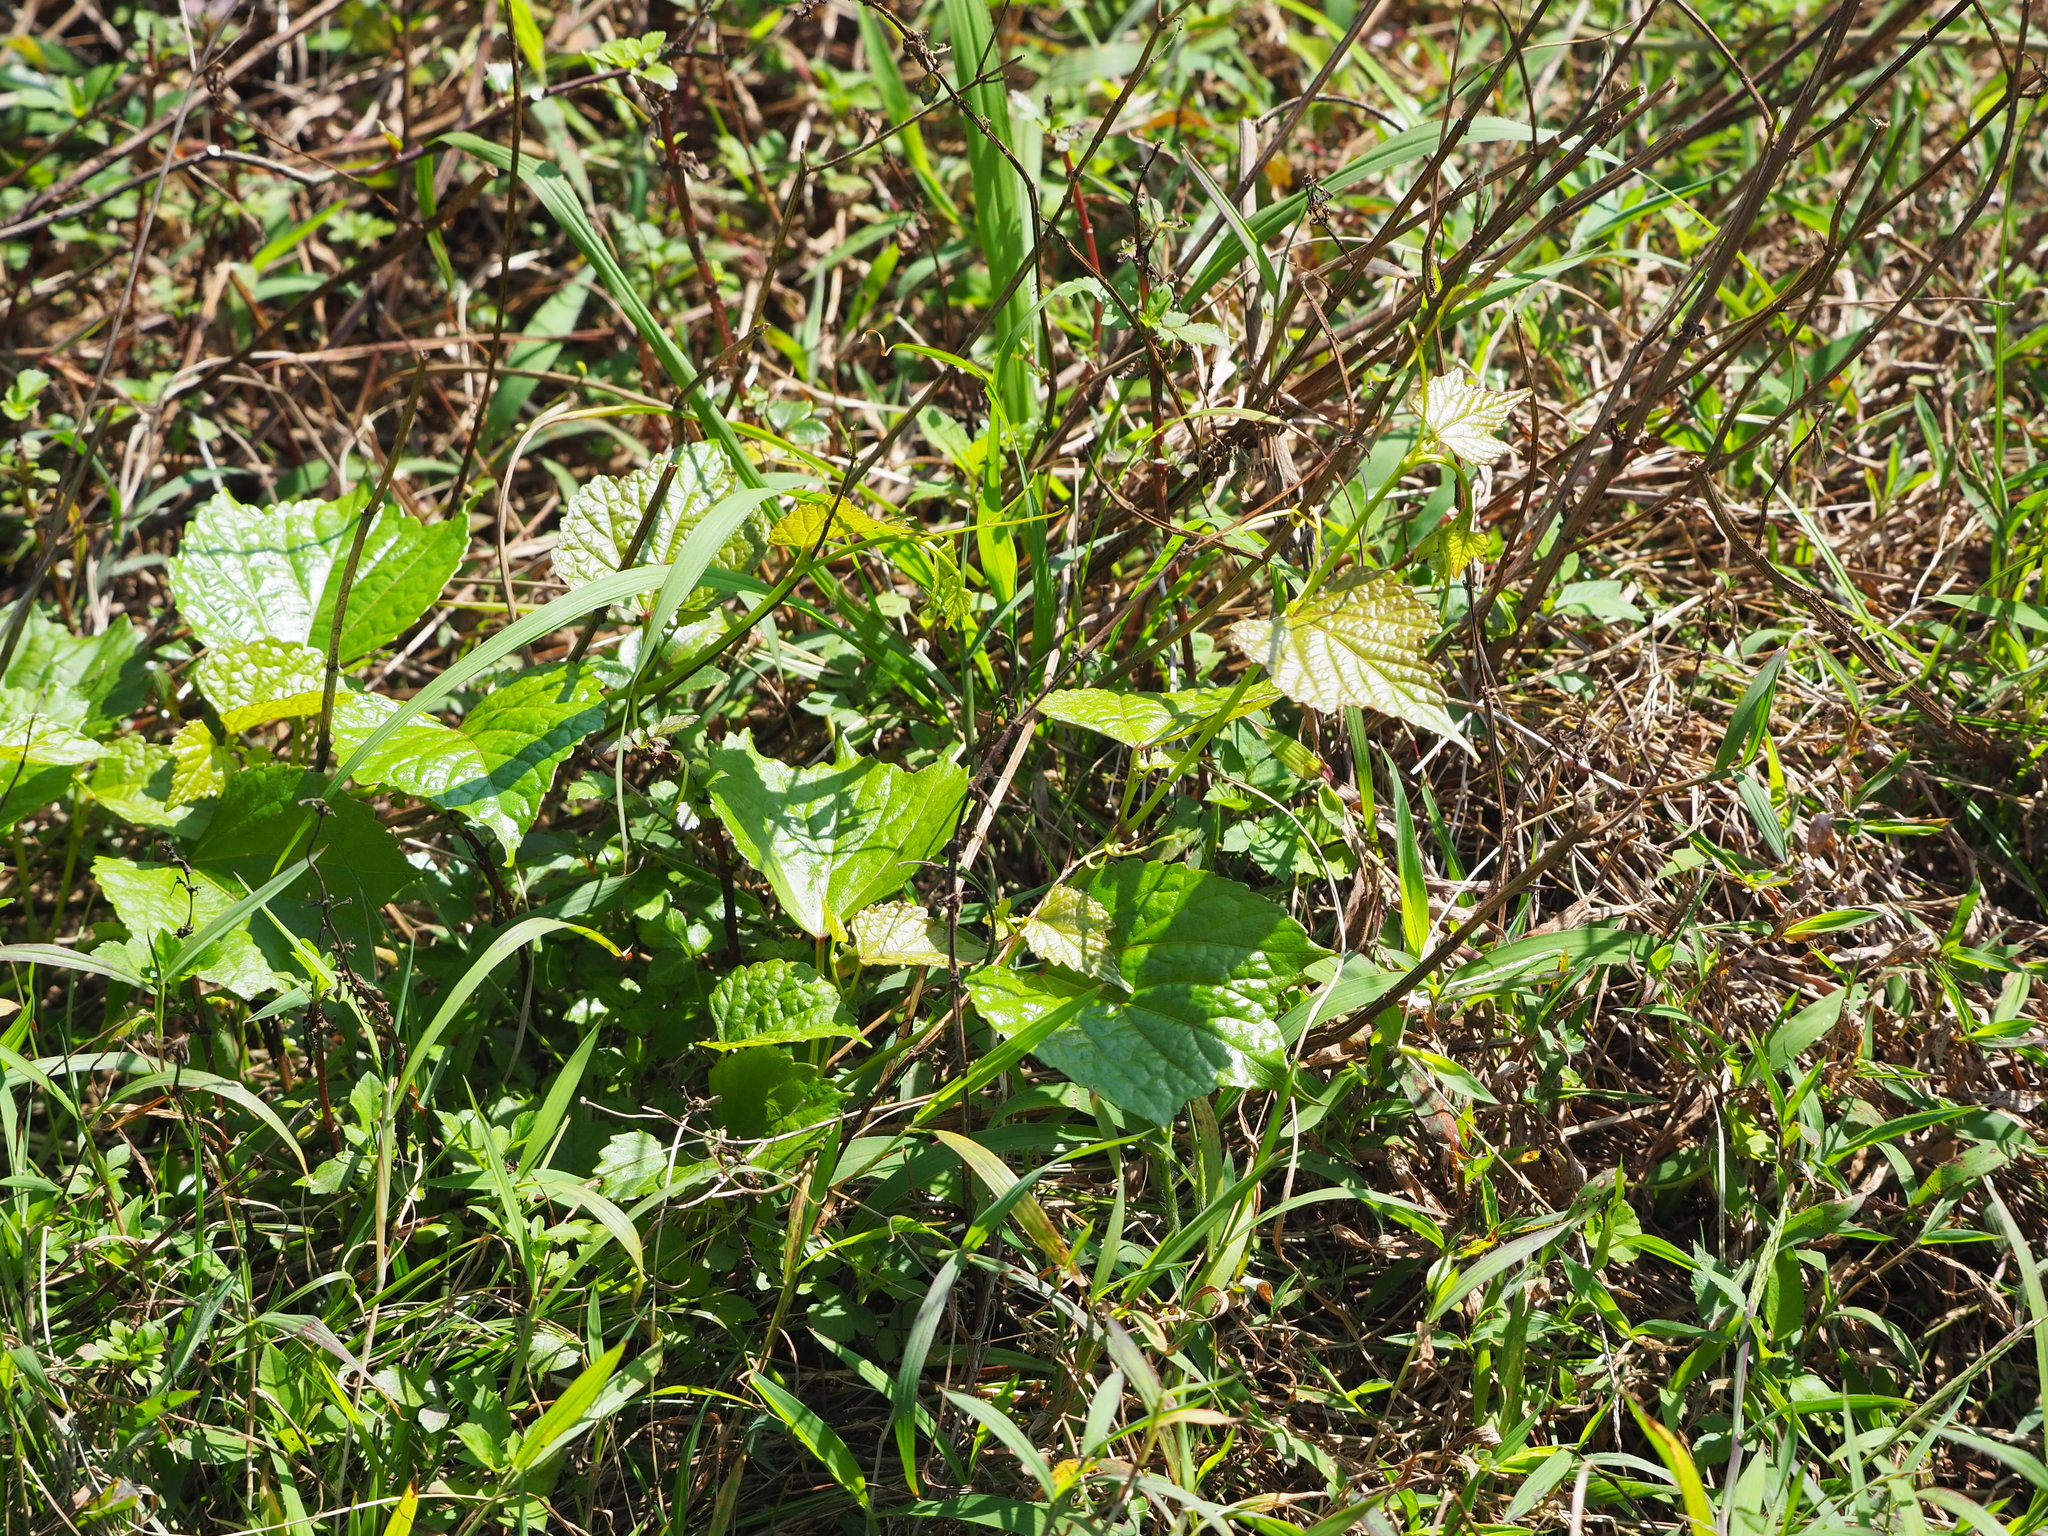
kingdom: Plantae
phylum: Tracheophyta
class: Magnoliopsida
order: Vitales
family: Vitaceae
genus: Ampelopsis
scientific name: Ampelopsis glandulosa
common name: Amur peppervine
